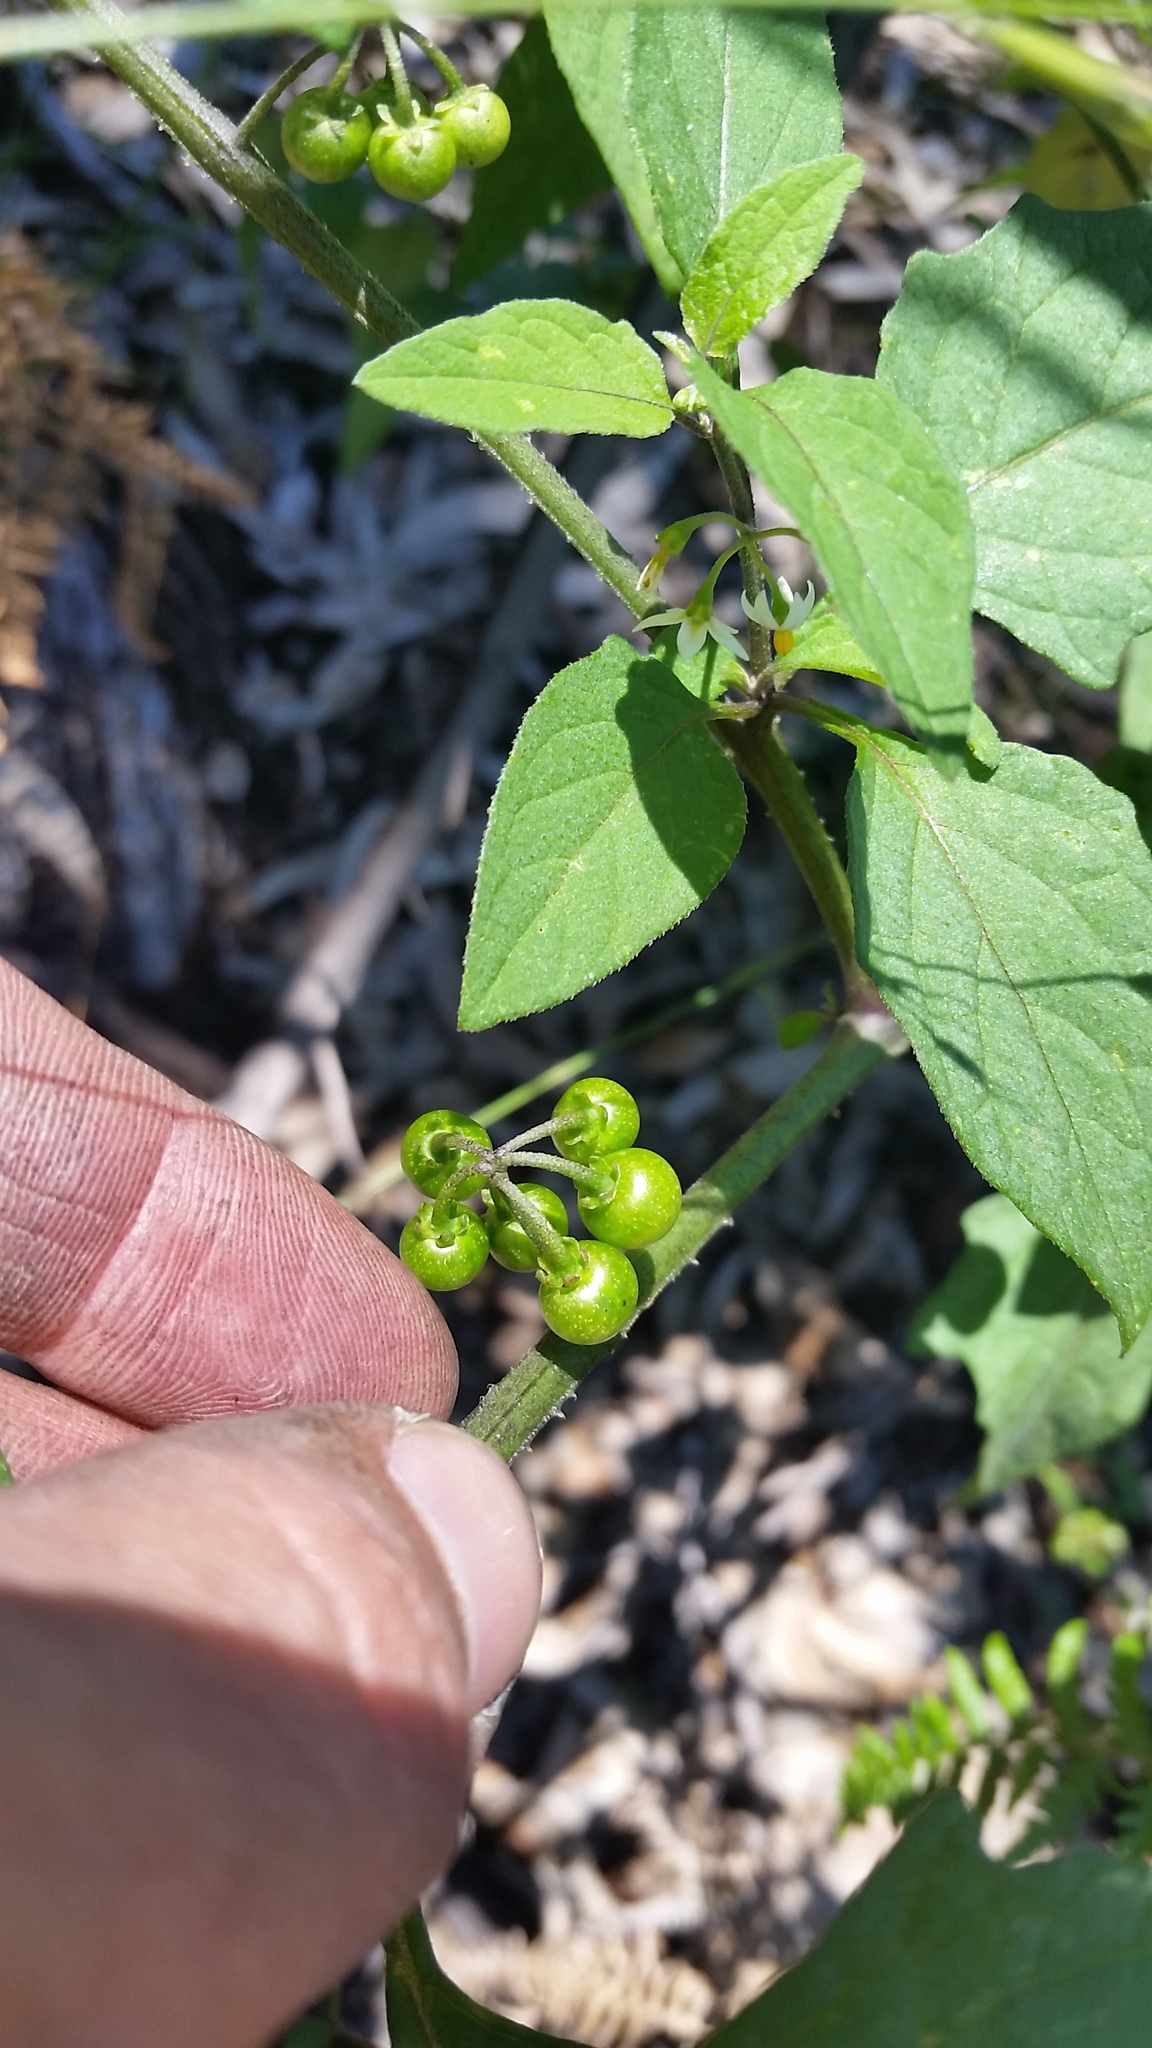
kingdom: Plantae
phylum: Tracheophyta
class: Magnoliopsida
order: Solanales
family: Solanaceae
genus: Solanum
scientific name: Solanum americanum
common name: American black nightshade
